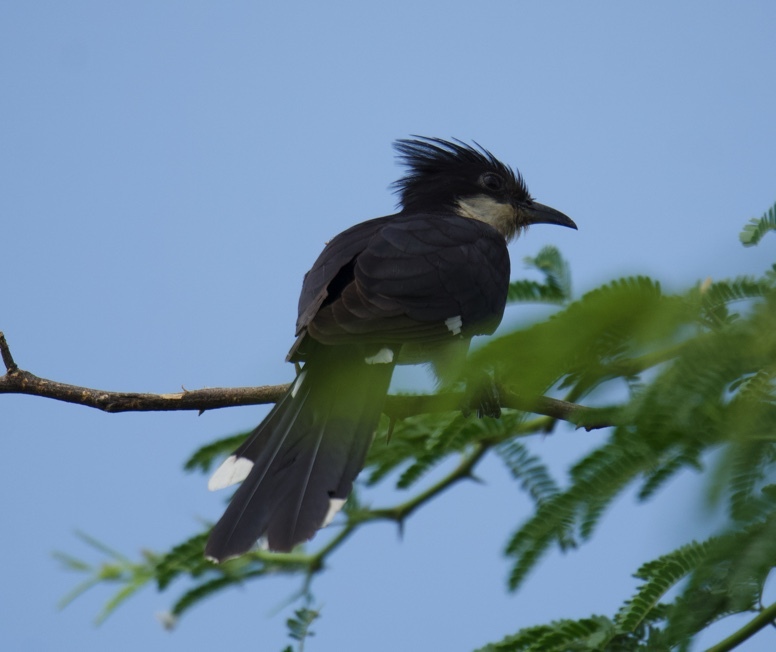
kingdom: Animalia
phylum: Chordata
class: Aves
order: Cuculiformes
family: Cuculidae
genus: Clamator
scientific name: Clamator jacobinus
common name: Jacobin cuckoo
